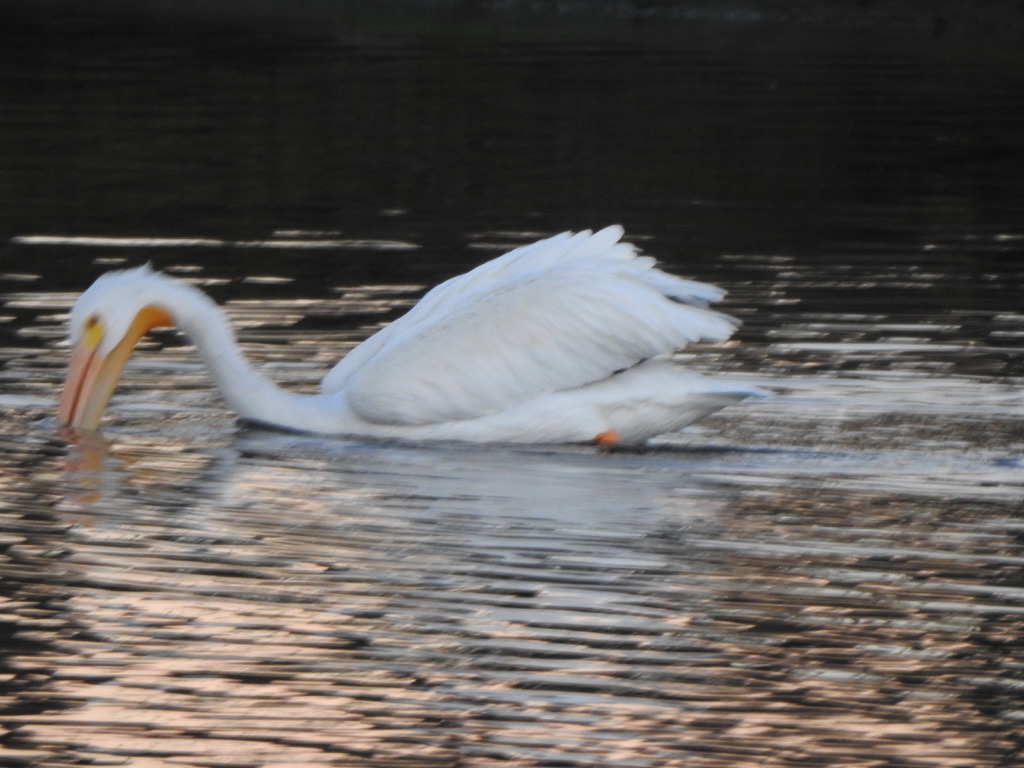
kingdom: Animalia
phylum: Chordata
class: Aves
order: Pelecaniformes
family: Pelecanidae
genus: Pelecanus
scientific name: Pelecanus erythrorhynchos
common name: American white pelican
